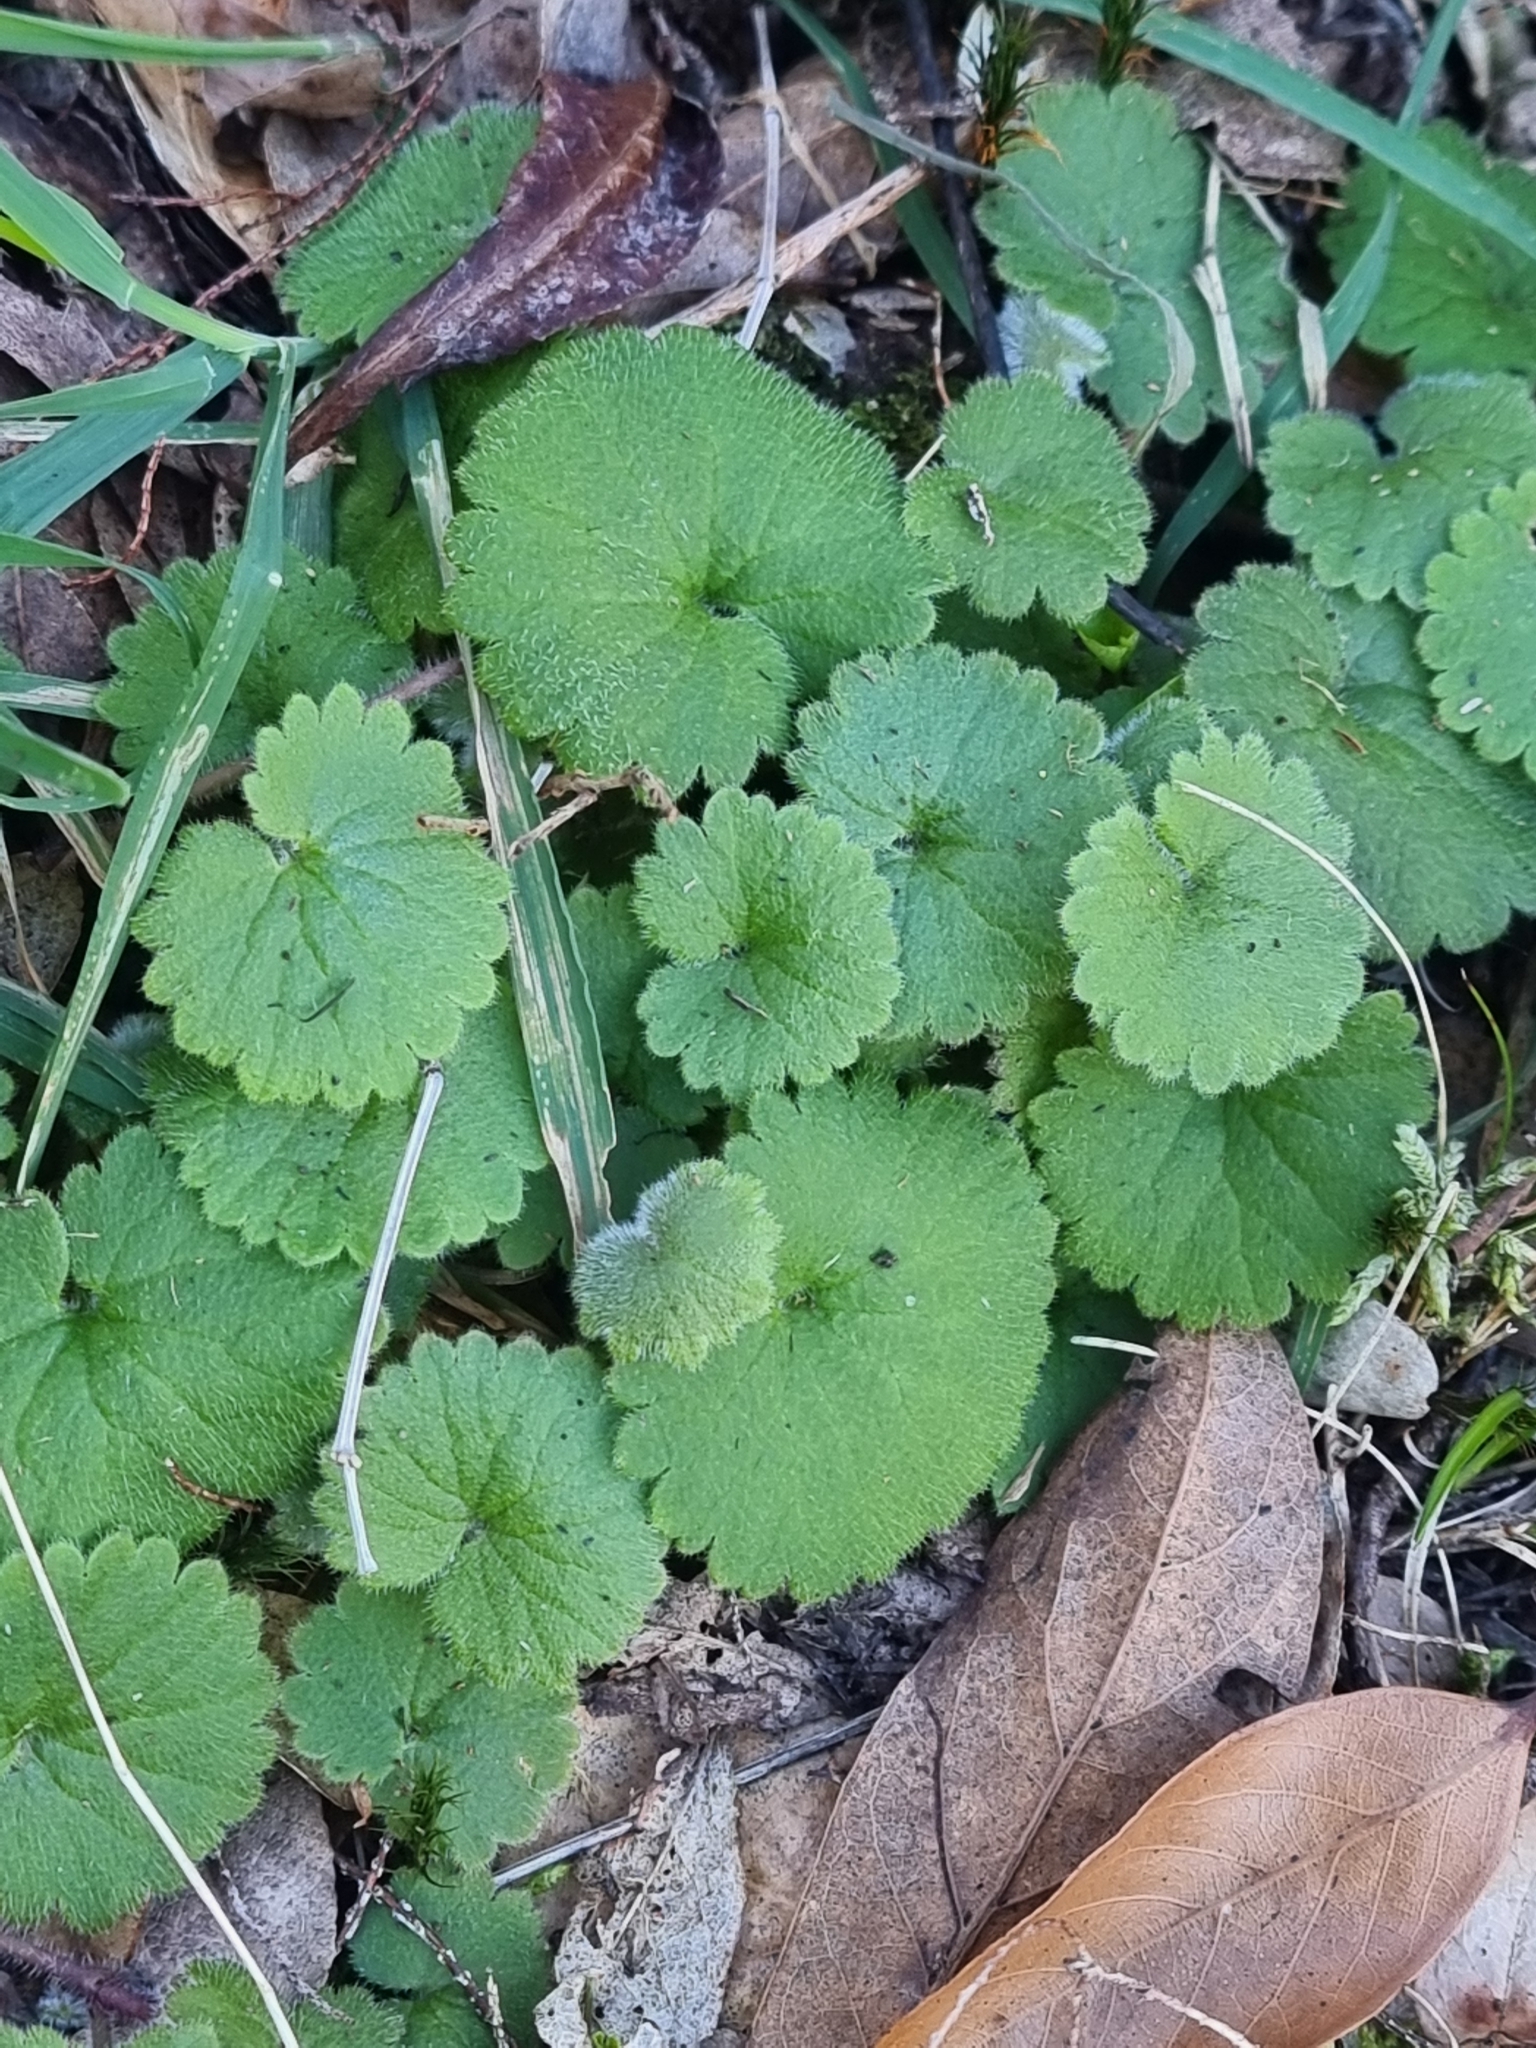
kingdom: Plantae
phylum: Tracheophyta
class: Magnoliopsida
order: Lamiales
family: Plantaginaceae
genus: Sibthorpia
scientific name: Sibthorpia peregrina
